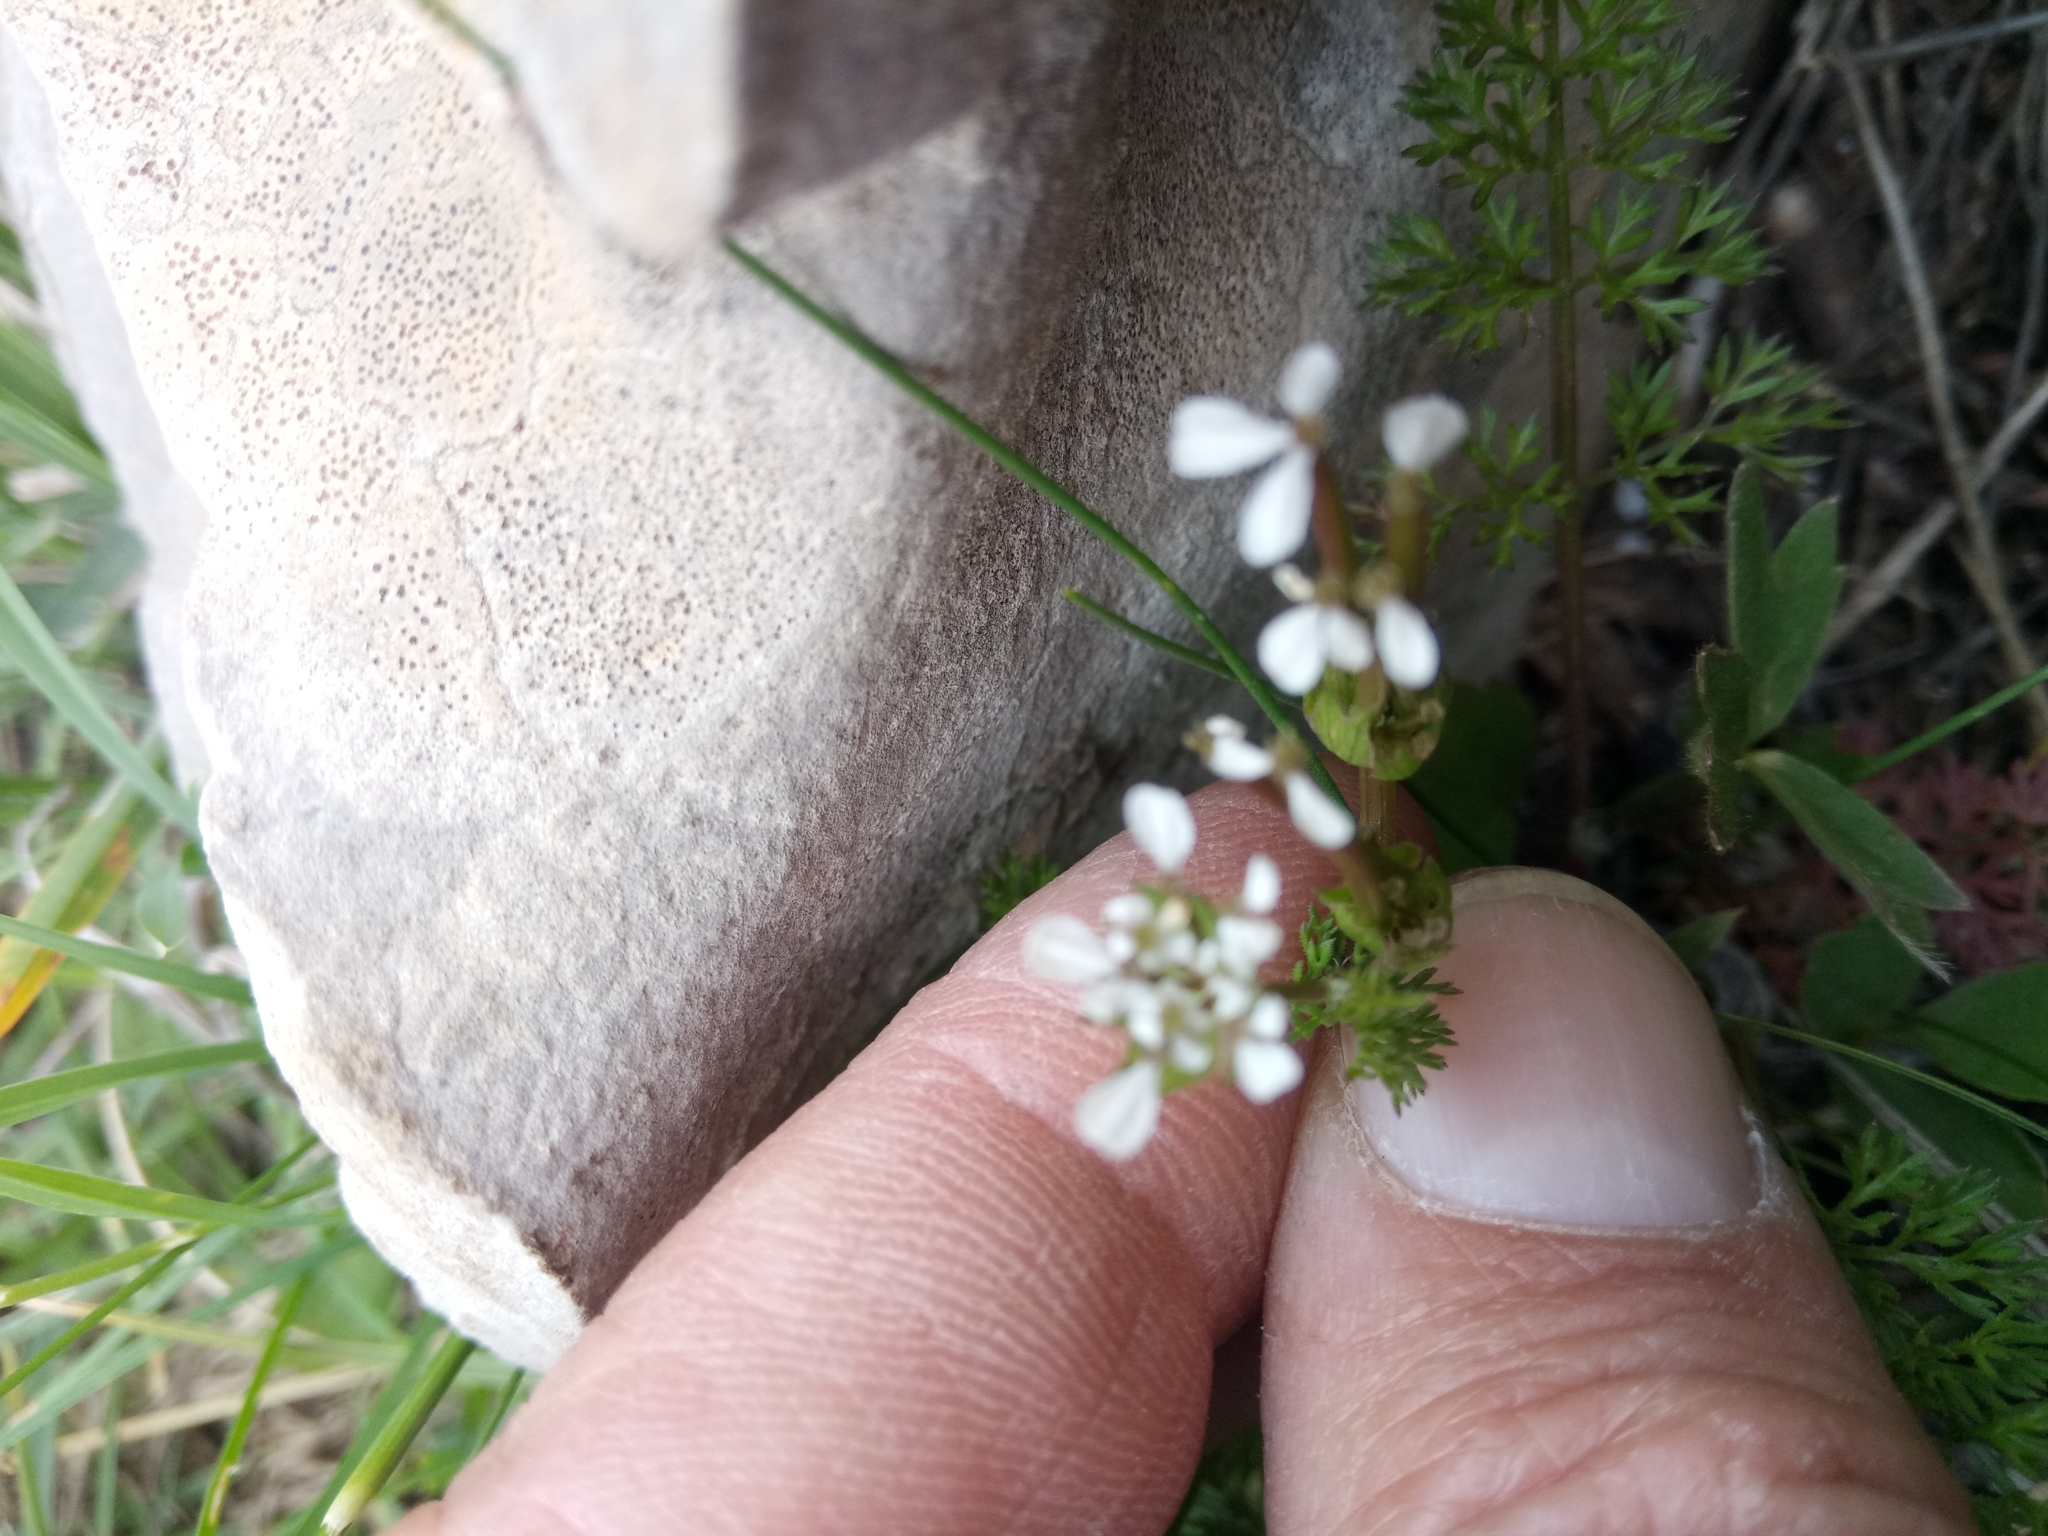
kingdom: Plantae
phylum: Tracheophyta
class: Magnoliopsida
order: Apiales
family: Apiaceae
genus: Scandix
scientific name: Scandix pecten-veneris
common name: Shepherd's-needle
